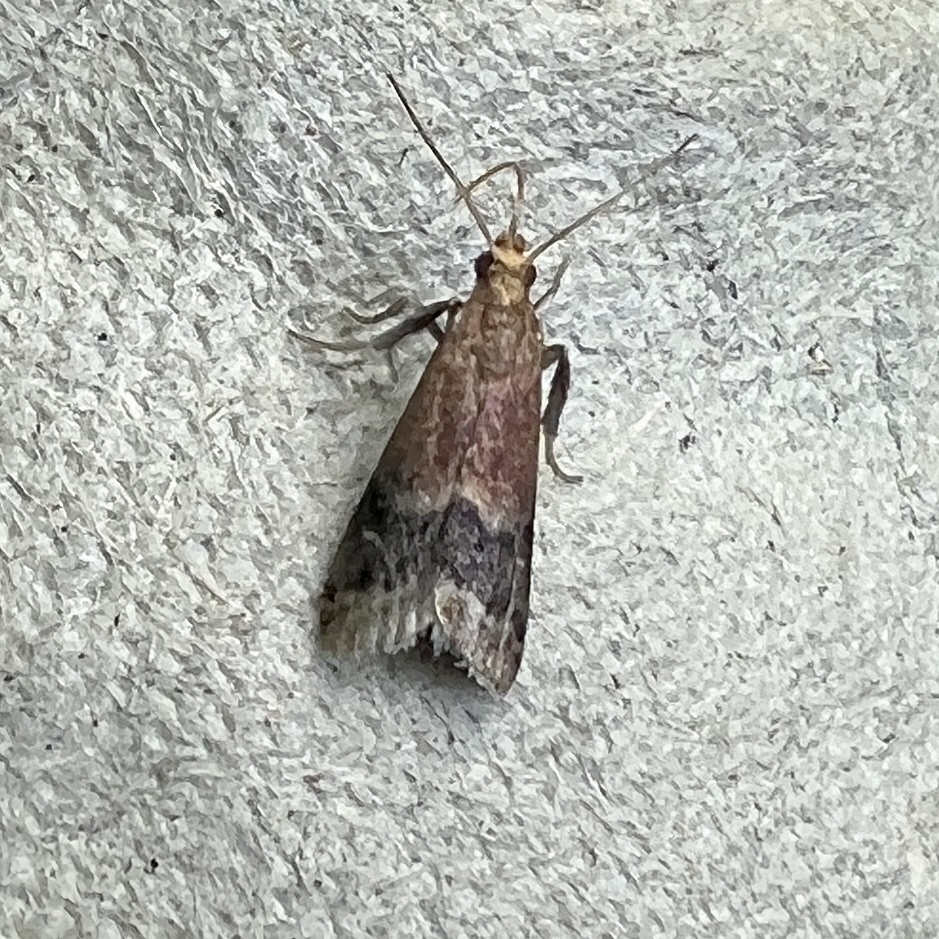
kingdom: Animalia
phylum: Arthropoda
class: Insecta
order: Lepidoptera
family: Pyralidae
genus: Eulogia
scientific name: Eulogia ochrifrontella
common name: Broad-banded eulogia moth
